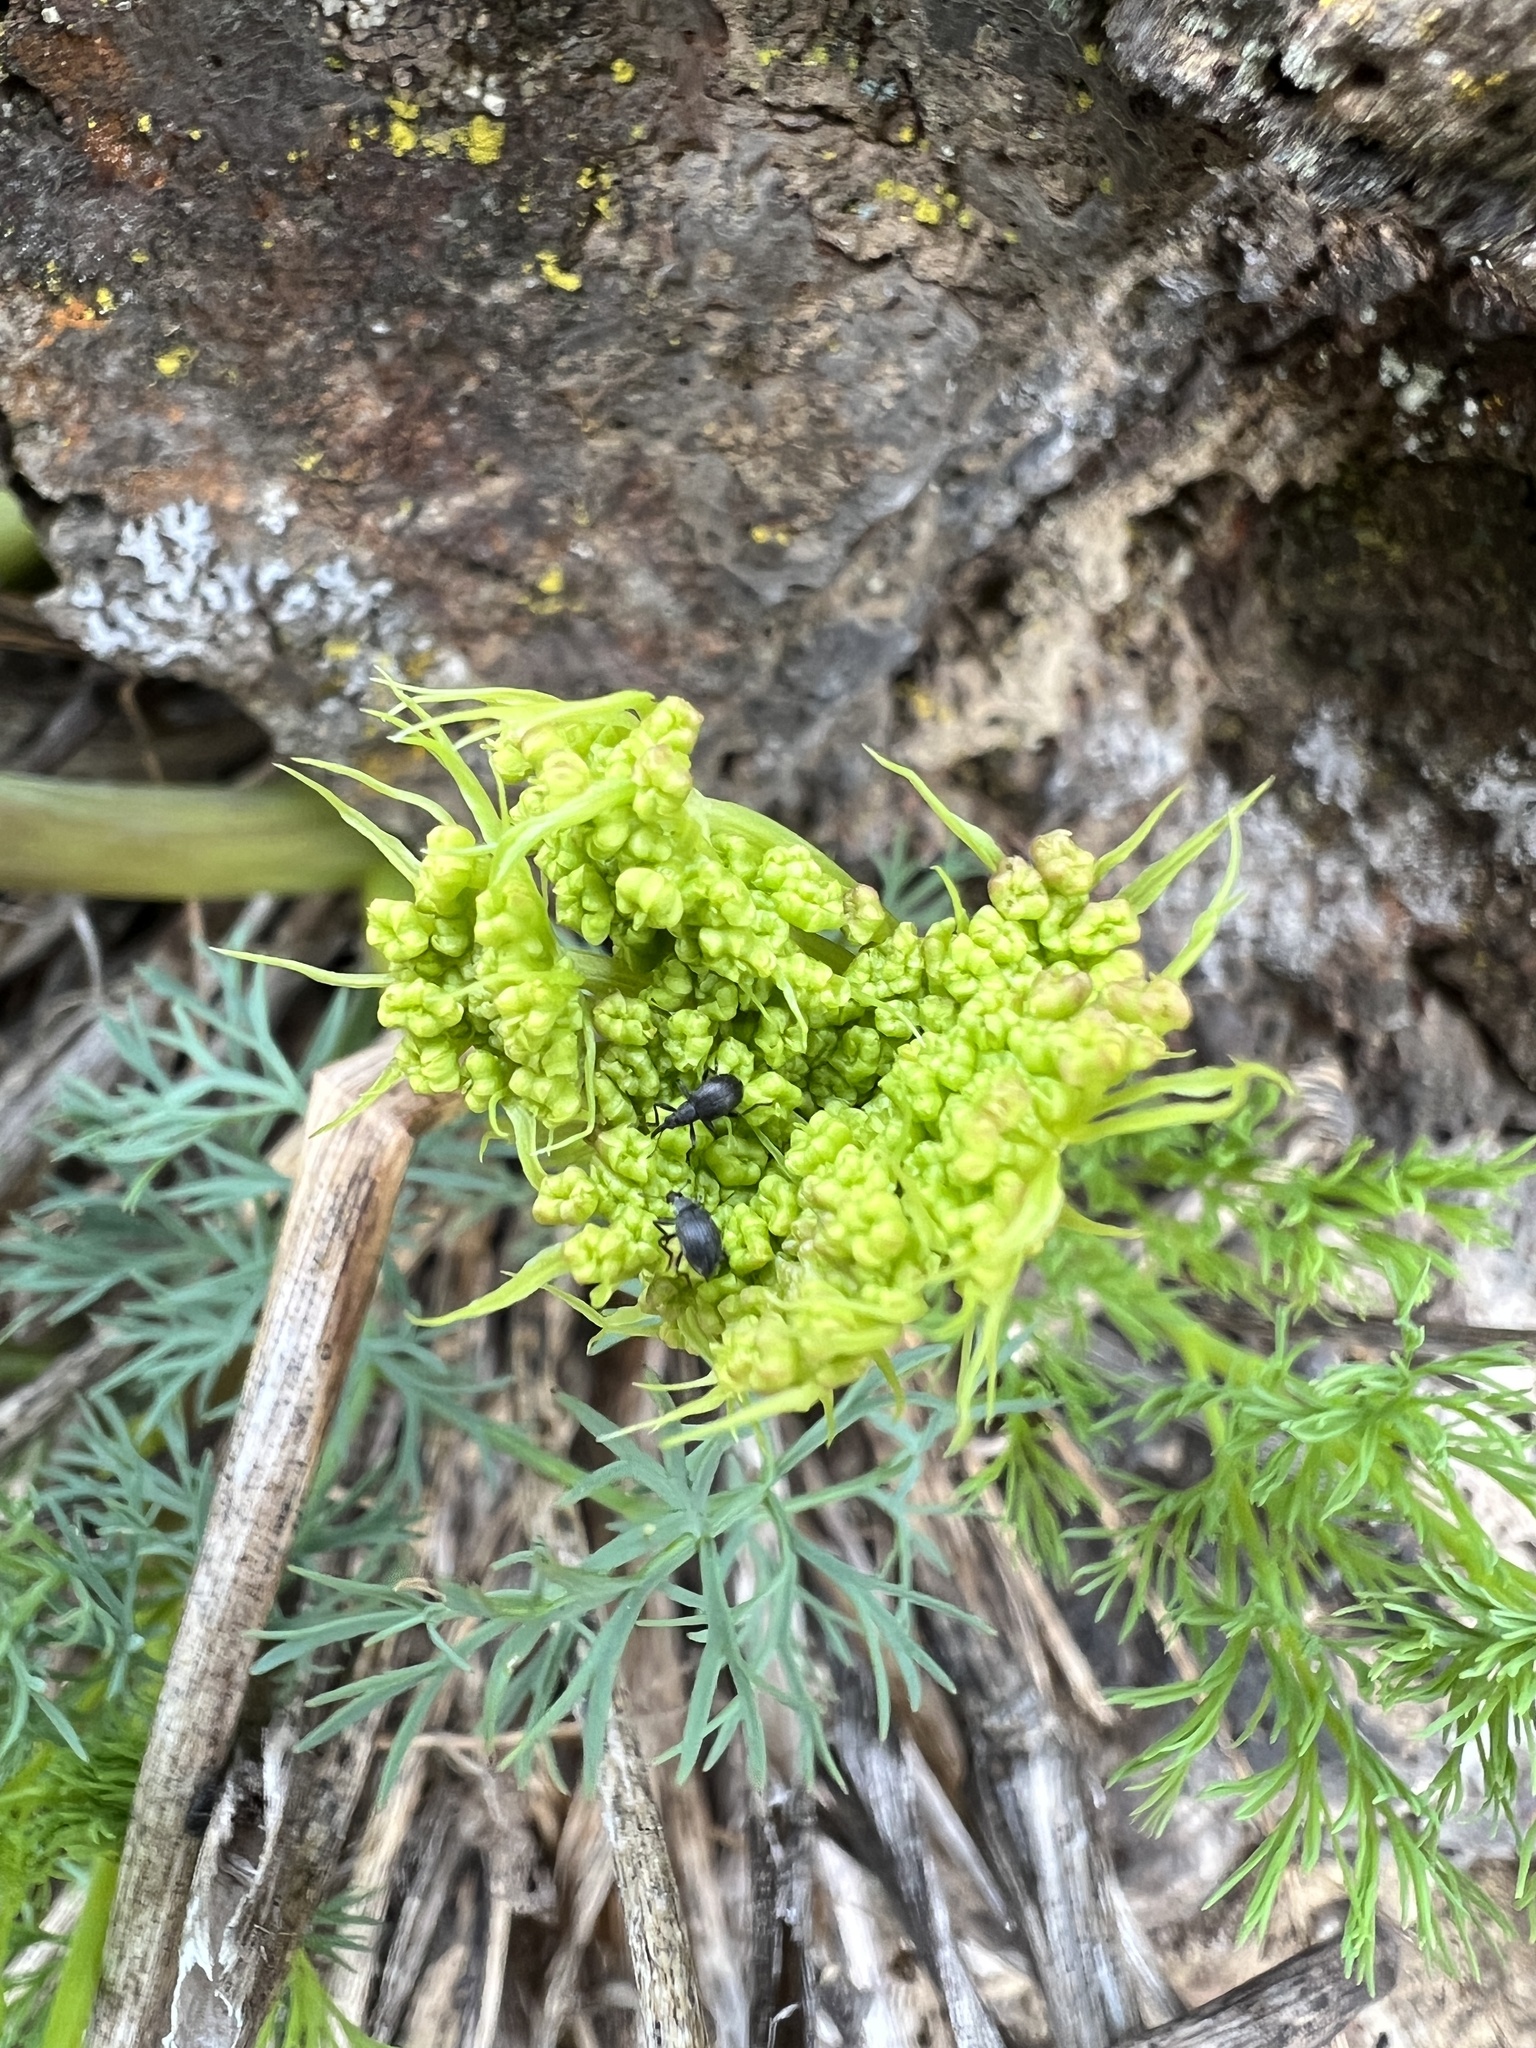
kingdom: Plantae
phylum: Tracheophyta
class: Magnoliopsida
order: Apiales
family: Apiaceae
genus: Lomatium
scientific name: Lomatium klickitatense
